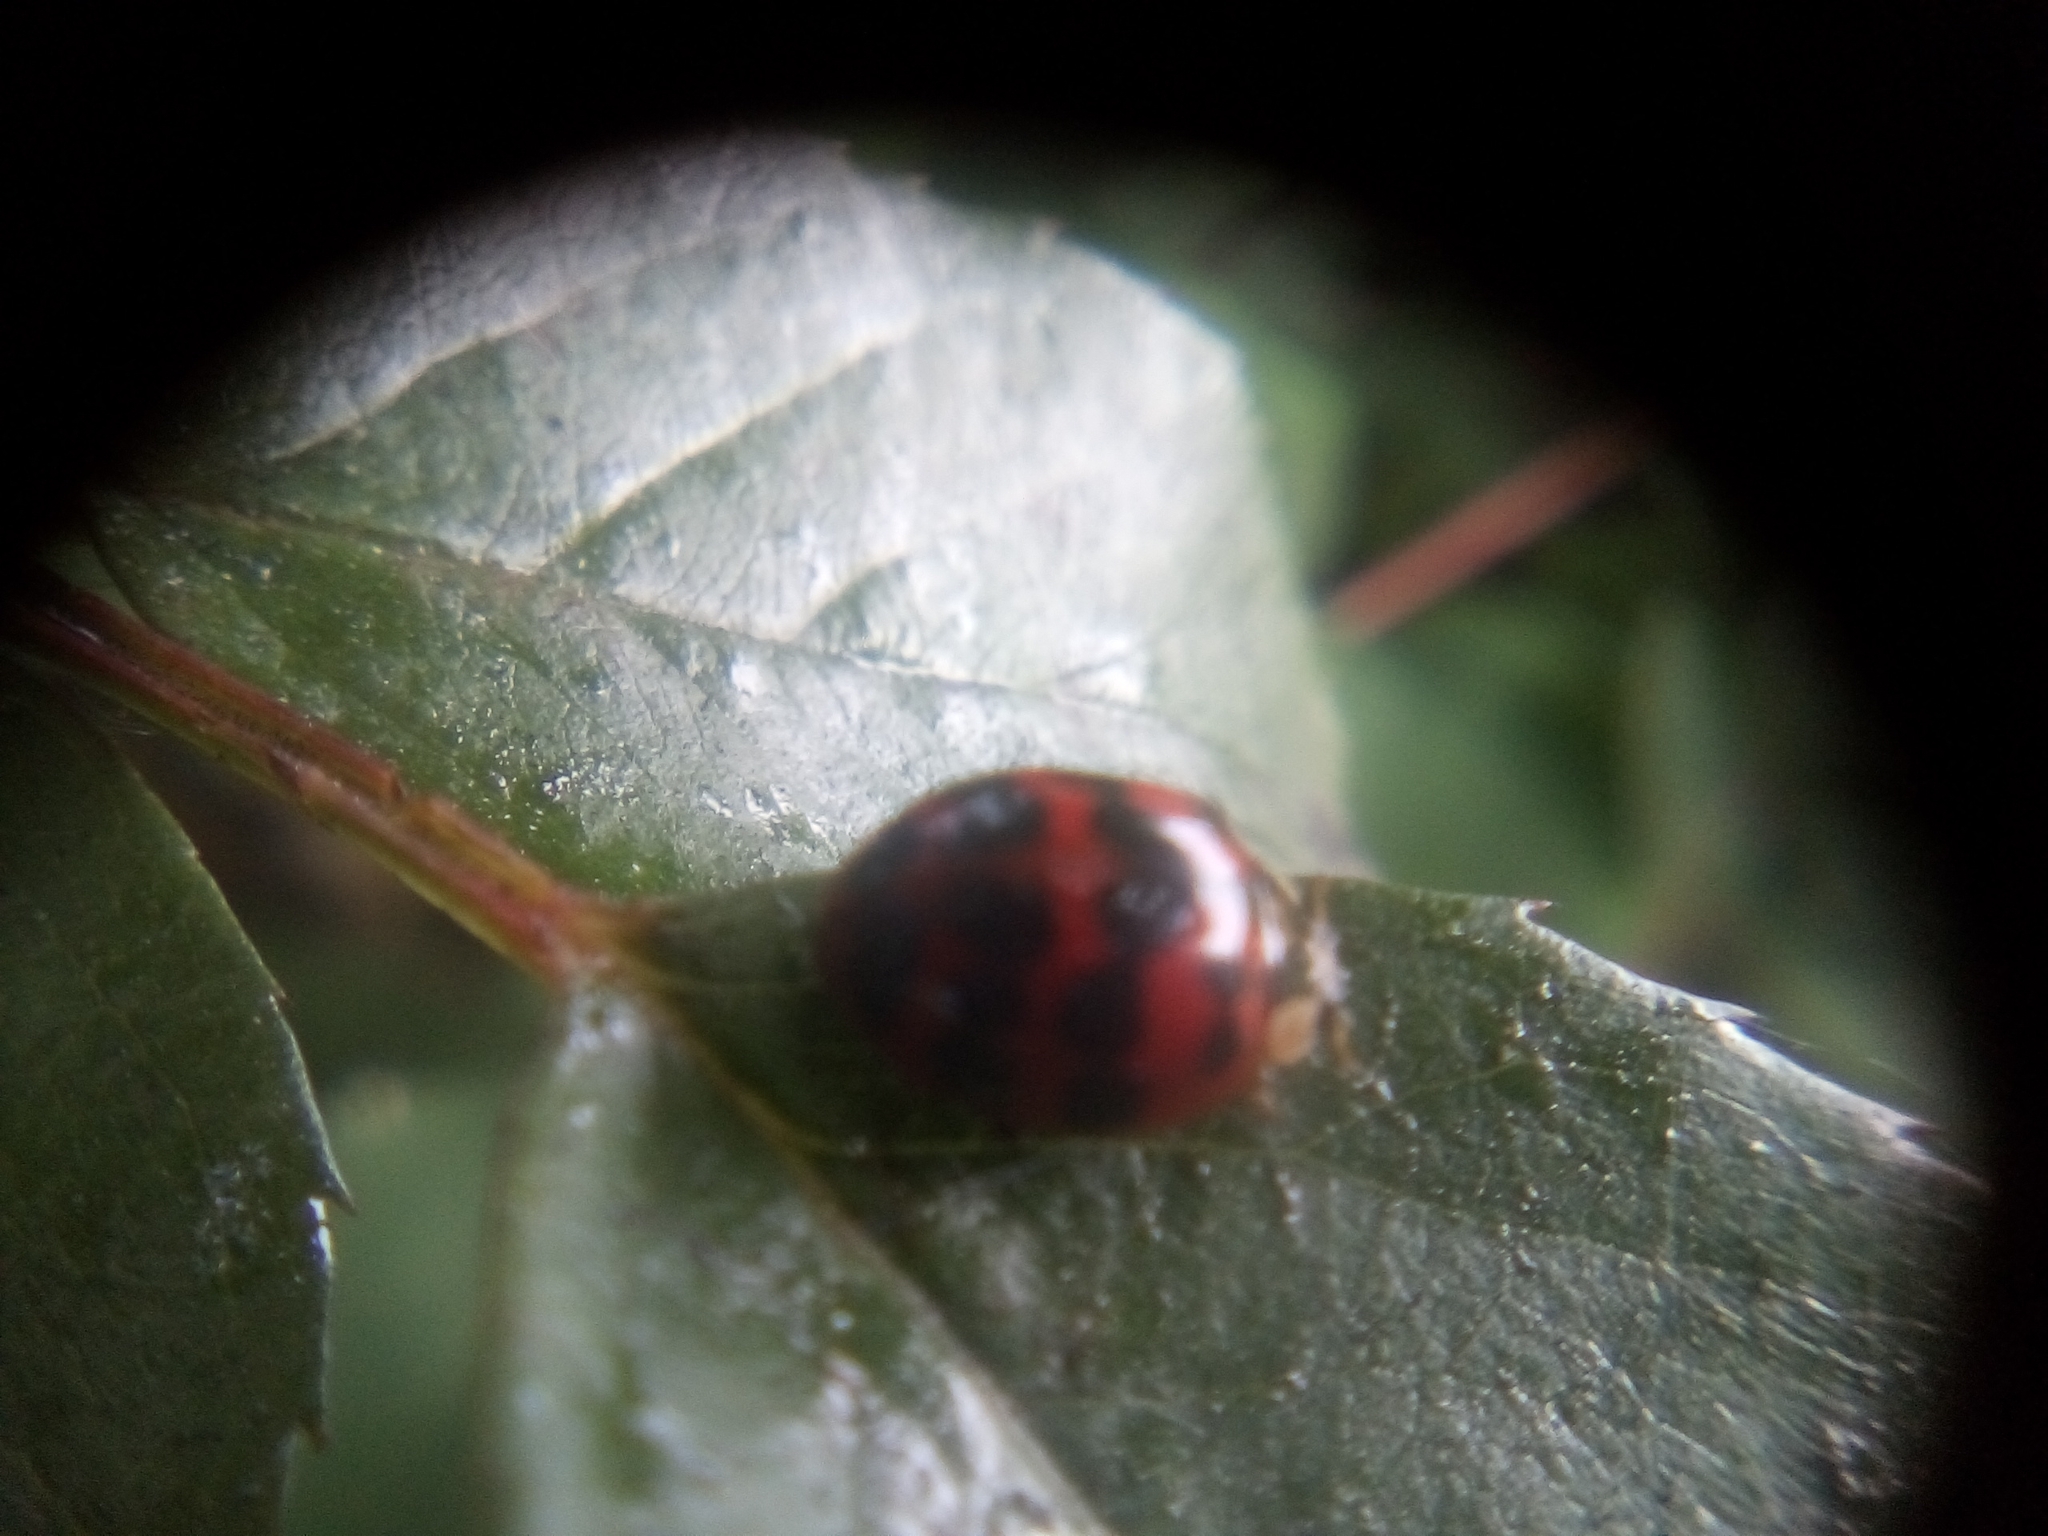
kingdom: Animalia
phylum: Arthropoda
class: Insecta
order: Coleoptera
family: Coccinellidae
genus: Harmonia
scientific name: Harmonia axyridis
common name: Harlequin ladybird
